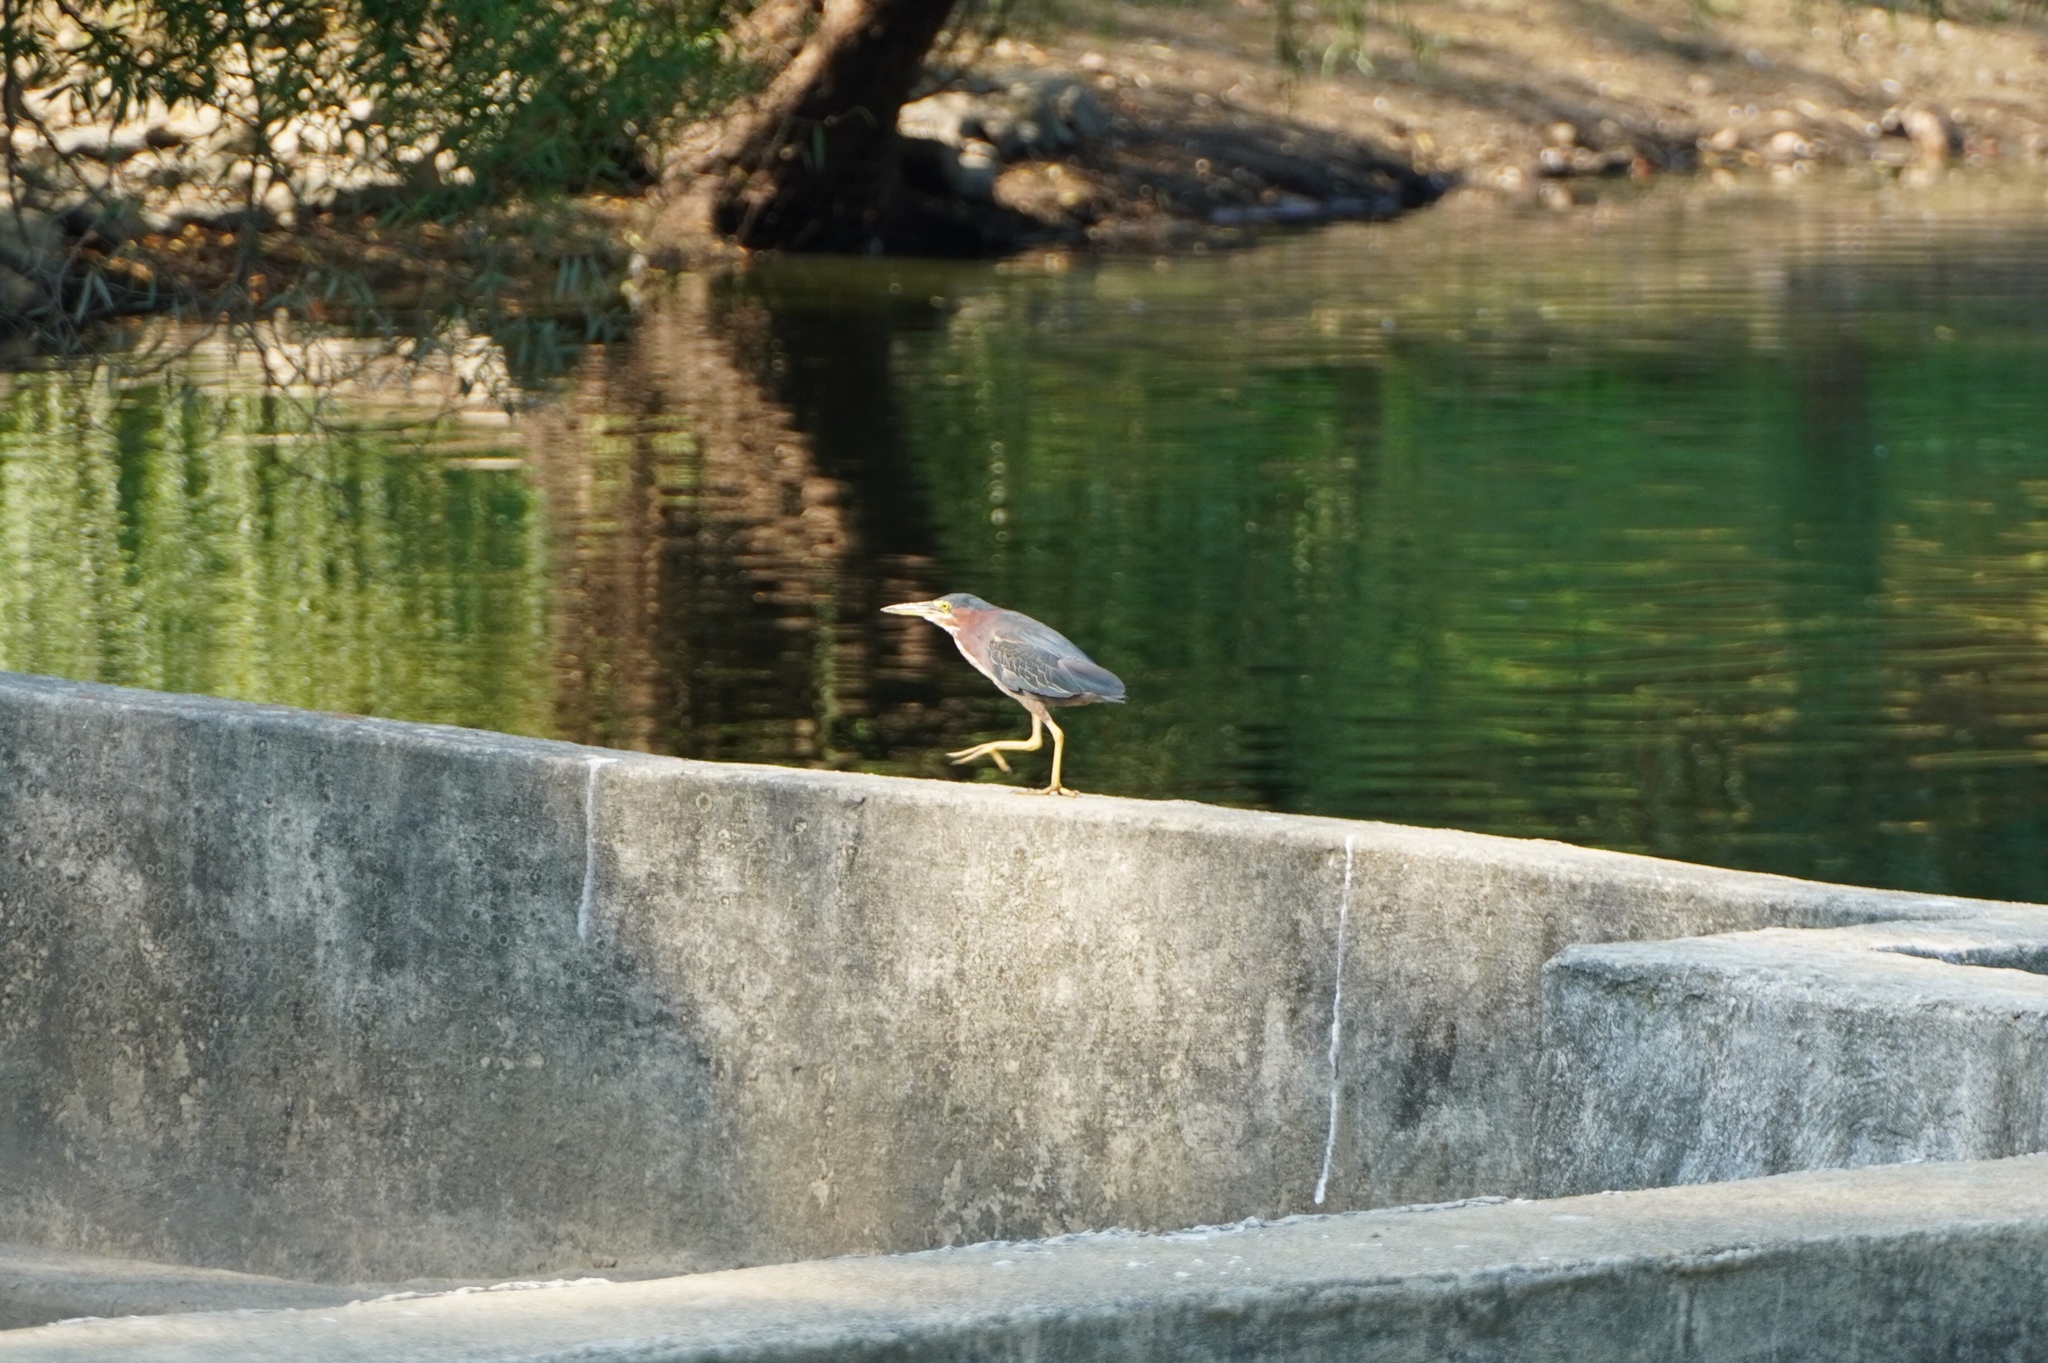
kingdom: Animalia
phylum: Chordata
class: Aves
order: Pelecaniformes
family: Ardeidae
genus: Butorides
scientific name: Butorides virescens
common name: Green heron
